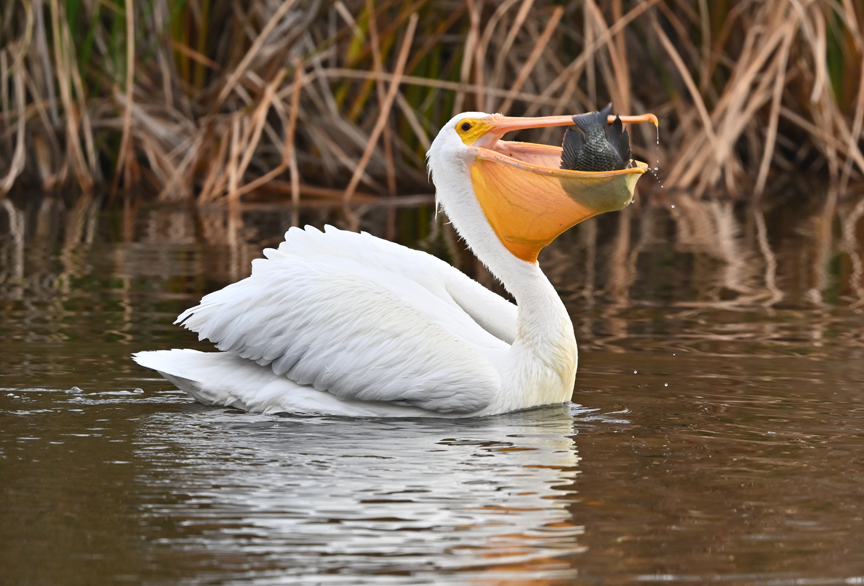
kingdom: Animalia
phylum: Chordata
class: Aves
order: Pelecaniformes
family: Pelecanidae
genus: Pelecanus
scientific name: Pelecanus erythrorhynchos
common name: American white pelican
